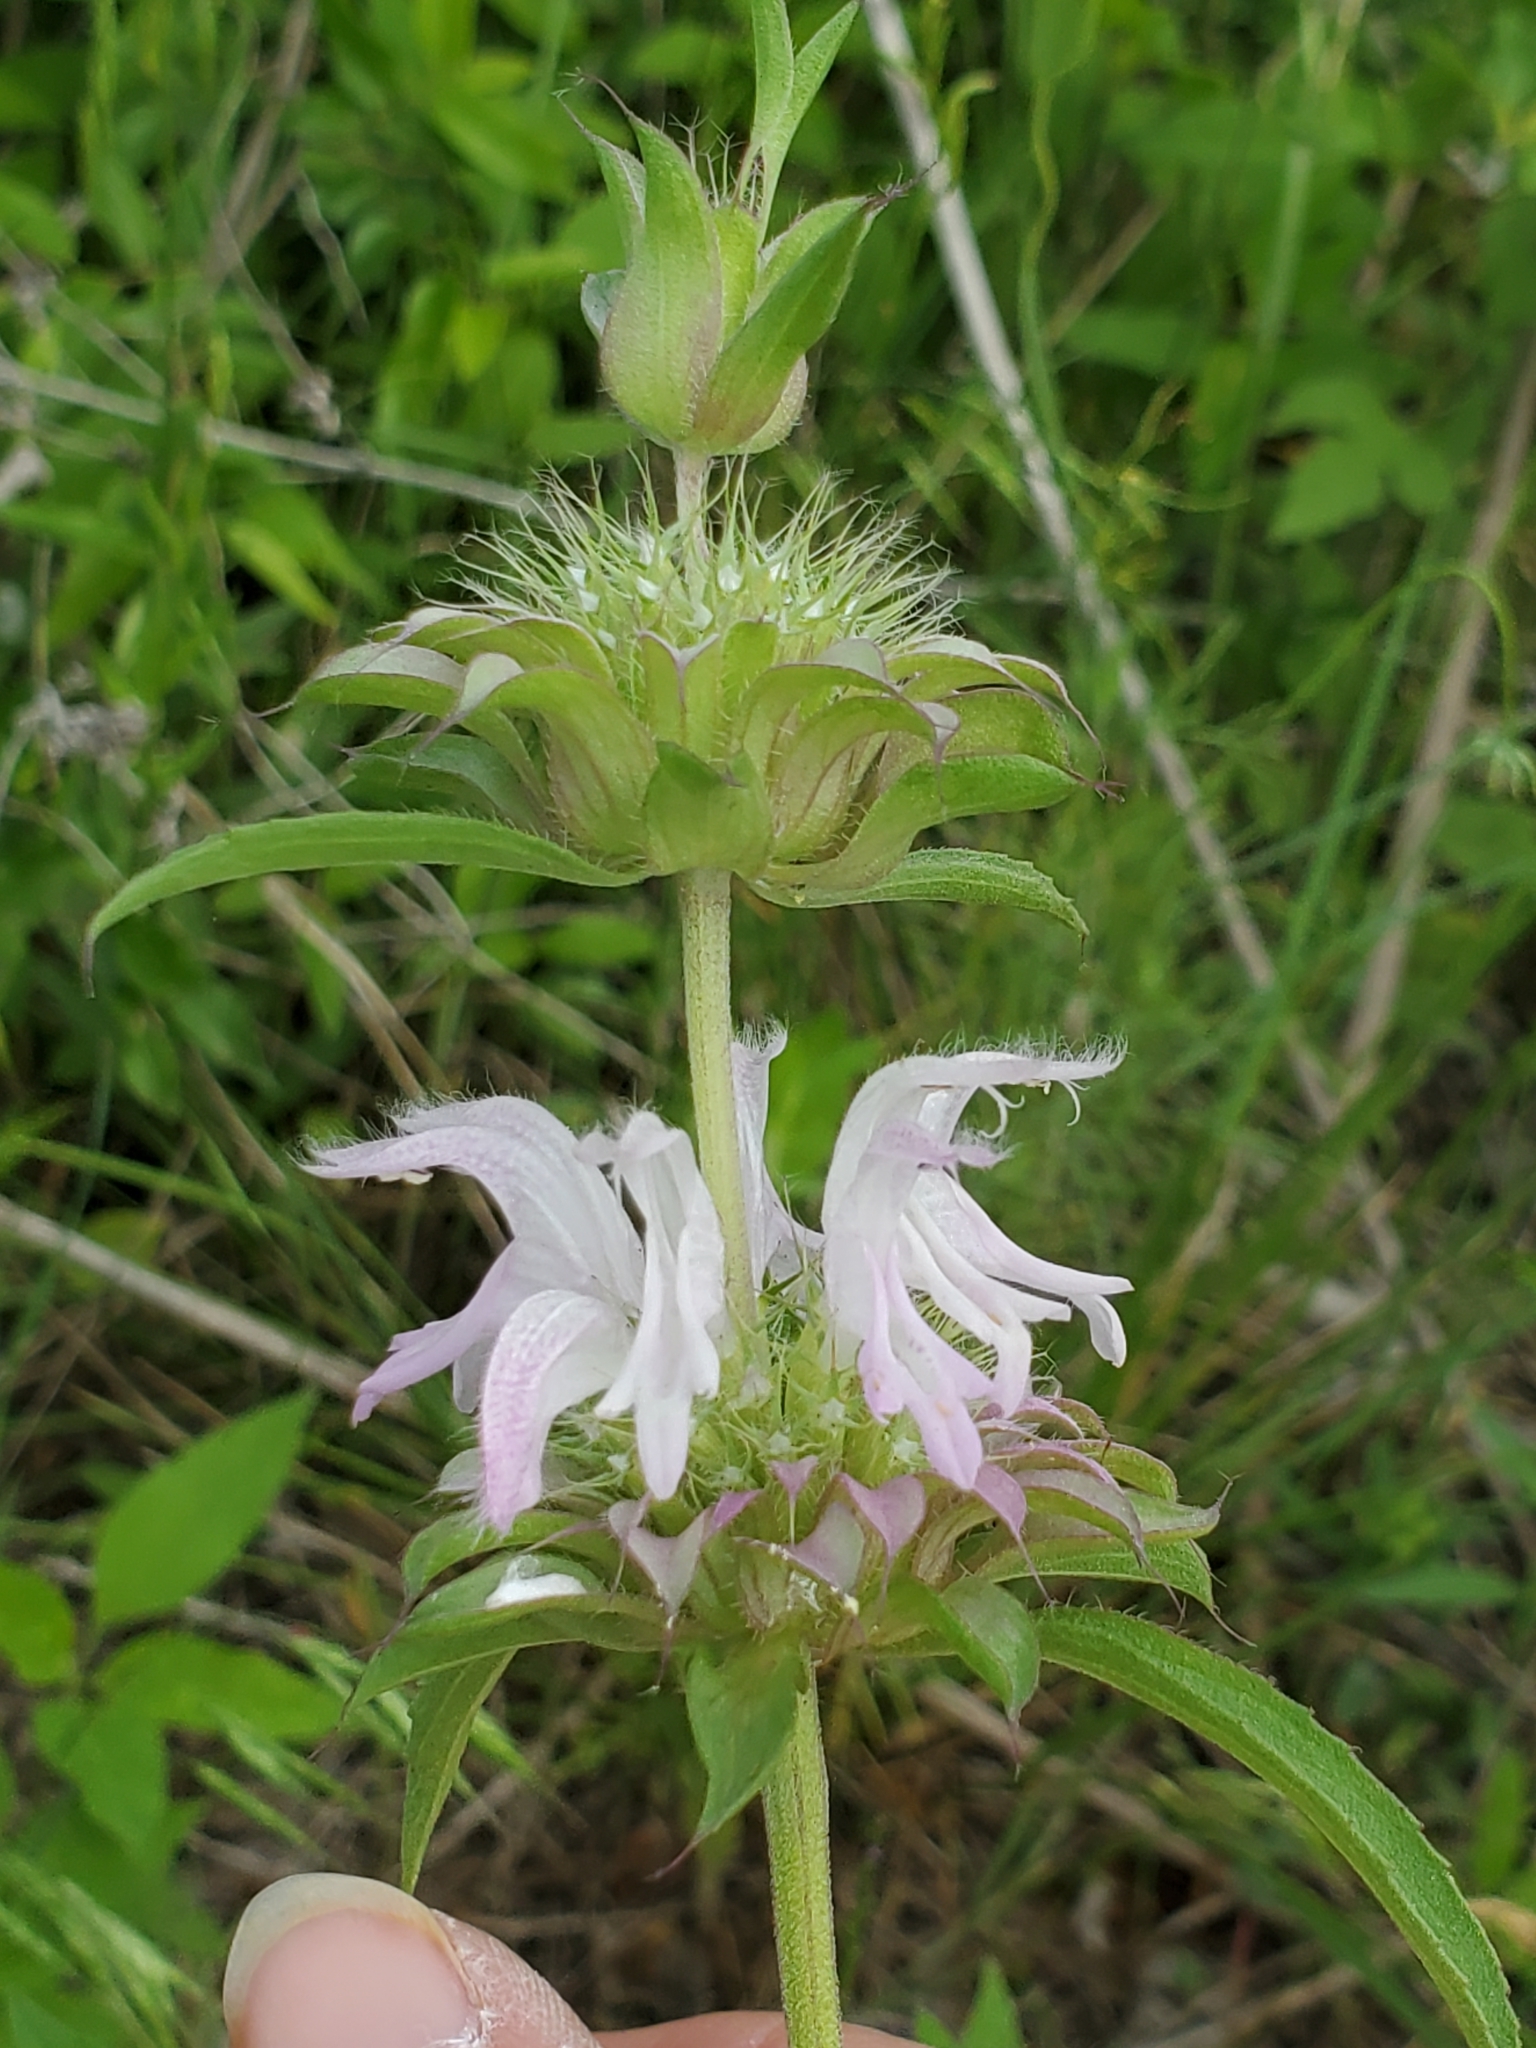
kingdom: Plantae
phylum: Tracheophyta
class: Magnoliopsida
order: Lamiales
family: Lamiaceae
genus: Monarda
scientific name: Monarda citriodora
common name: Lemon beebalm
